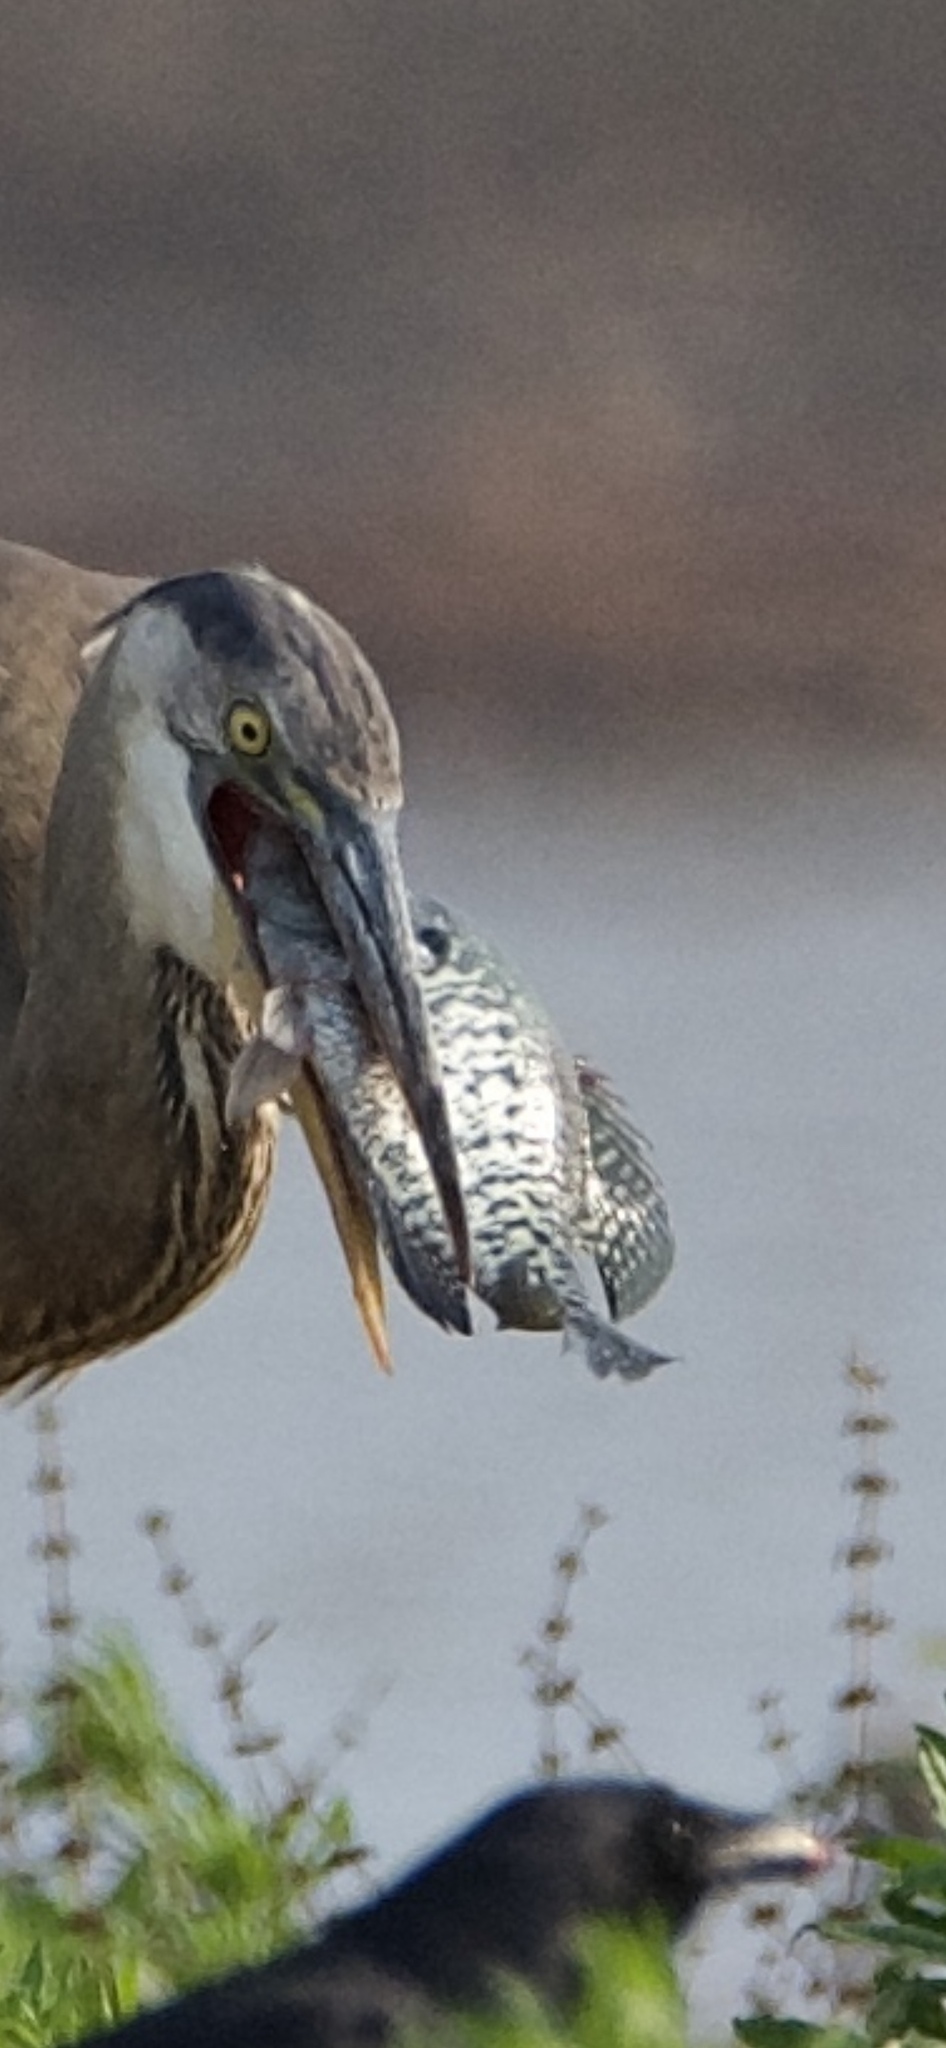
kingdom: Animalia
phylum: Chordata
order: Perciformes
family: Centrarchidae
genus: Pomoxis
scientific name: Pomoxis annularis
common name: White crappie
